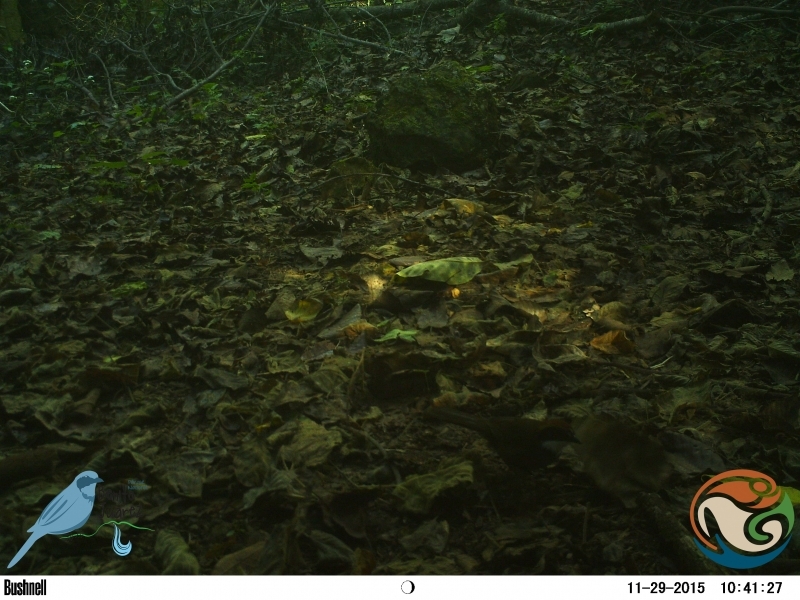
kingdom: Animalia
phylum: Chordata
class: Aves
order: Passeriformes
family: Passerellidae
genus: Arremon
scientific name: Arremon brunneinucha
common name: Chestnut-capped brushfinch
